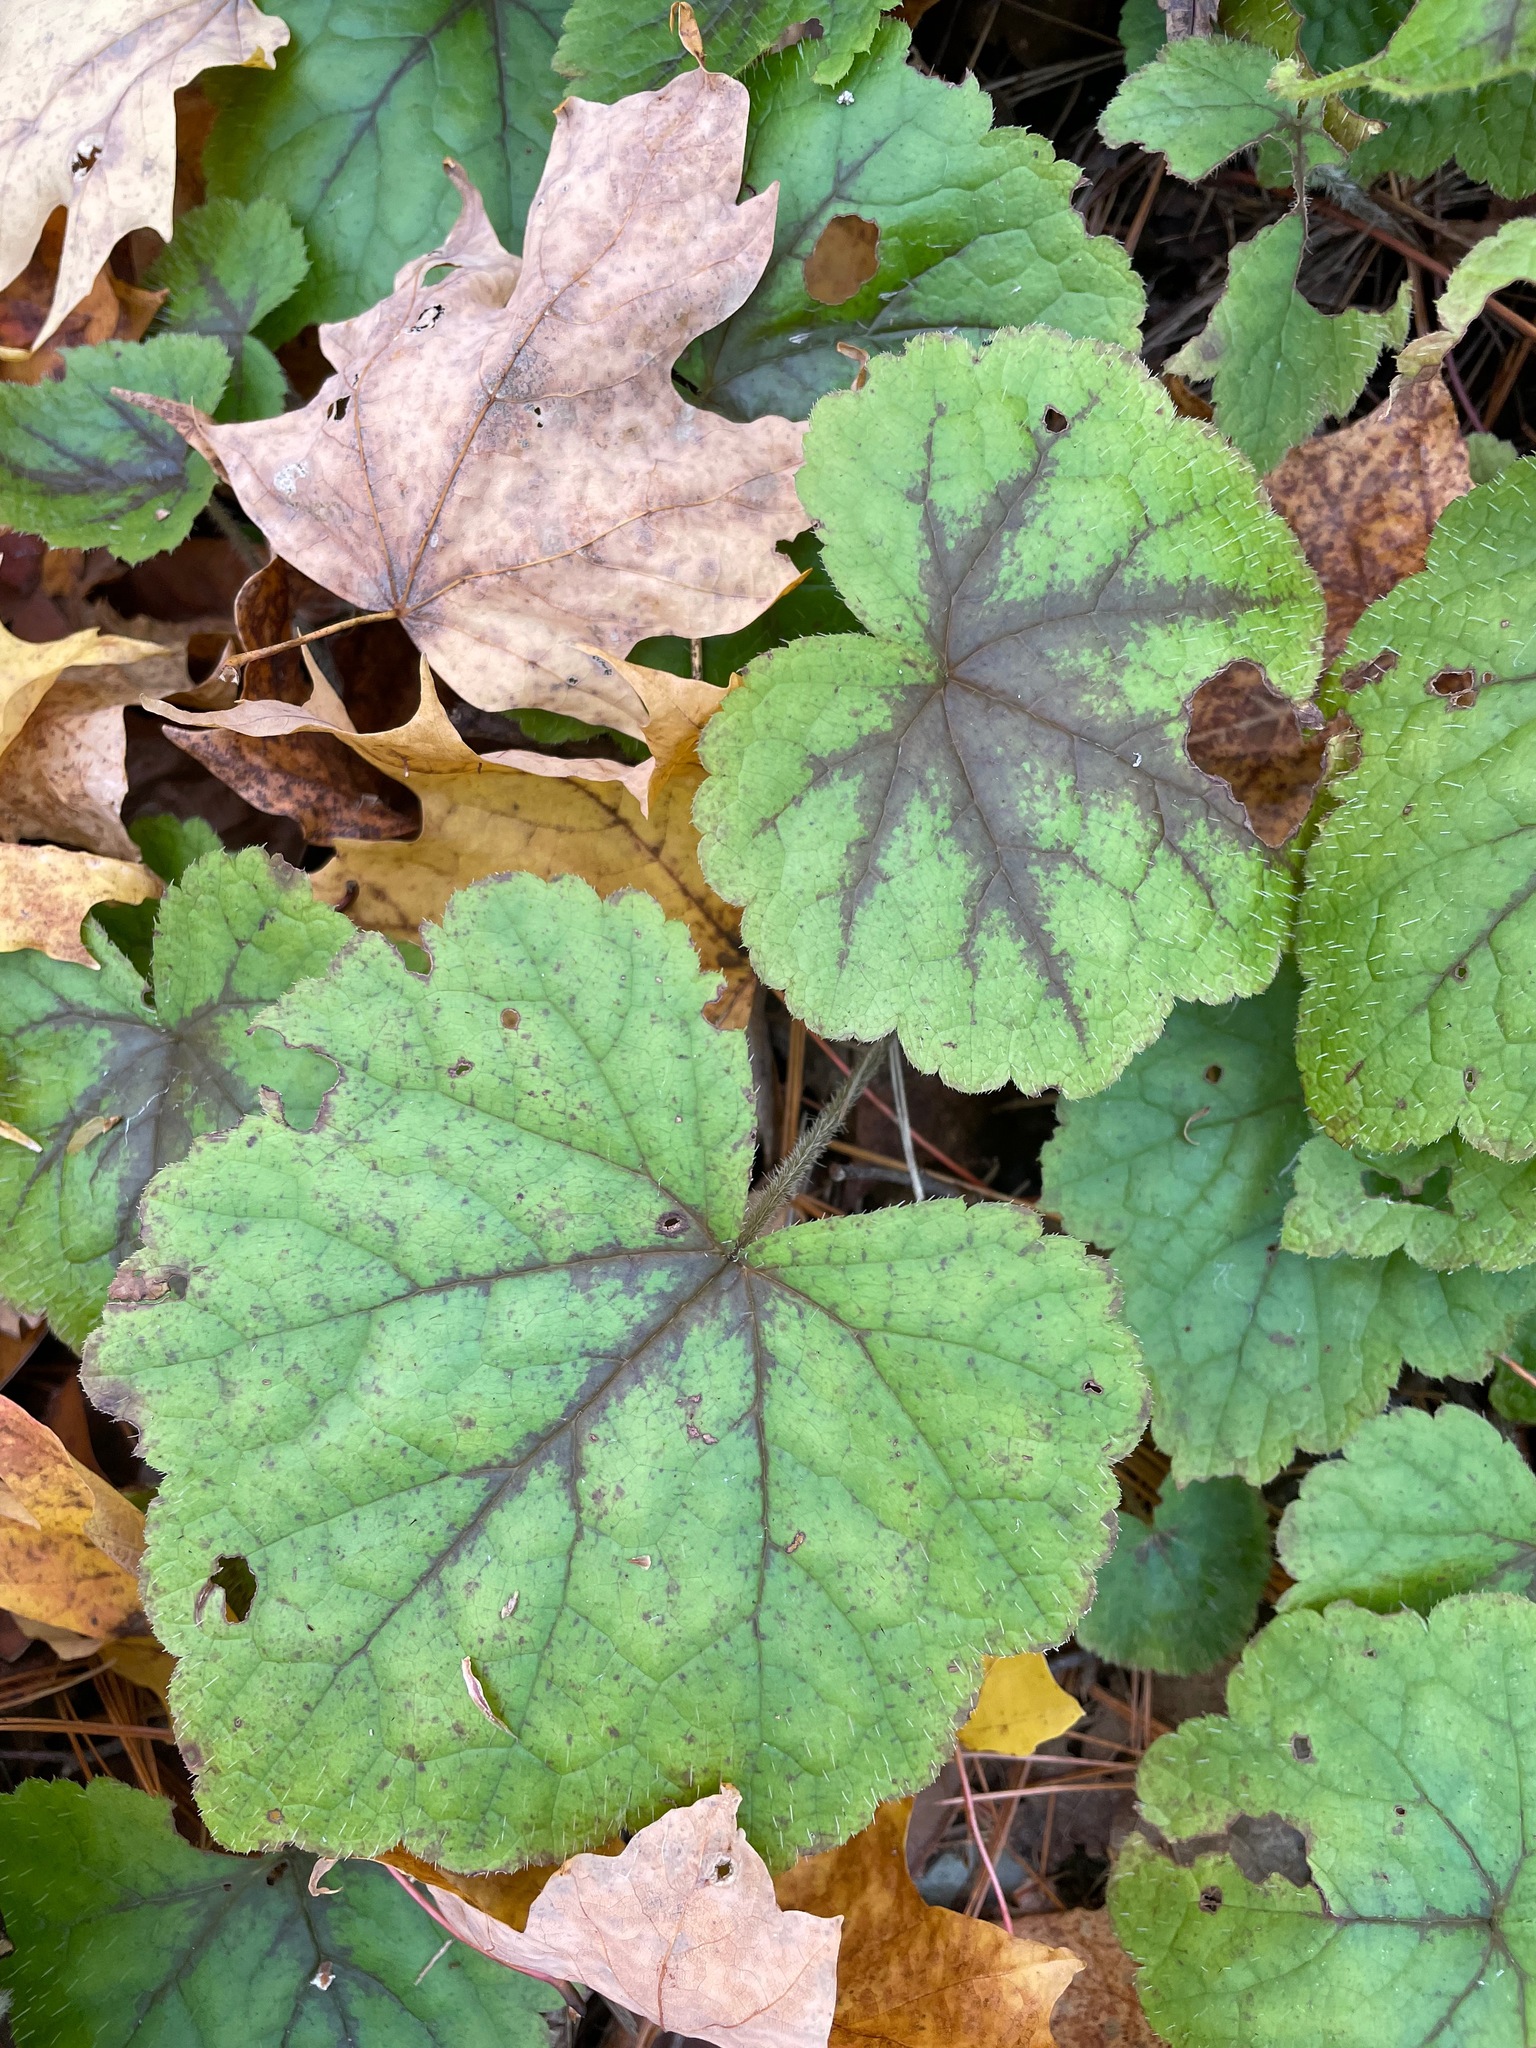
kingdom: Plantae
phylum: Tracheophyta
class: Magnoliopsida
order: Saxifragales
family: Saxifragaceae
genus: Tiarella
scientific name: Tiarella stolonifera
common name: Stoloniferous foamflower
